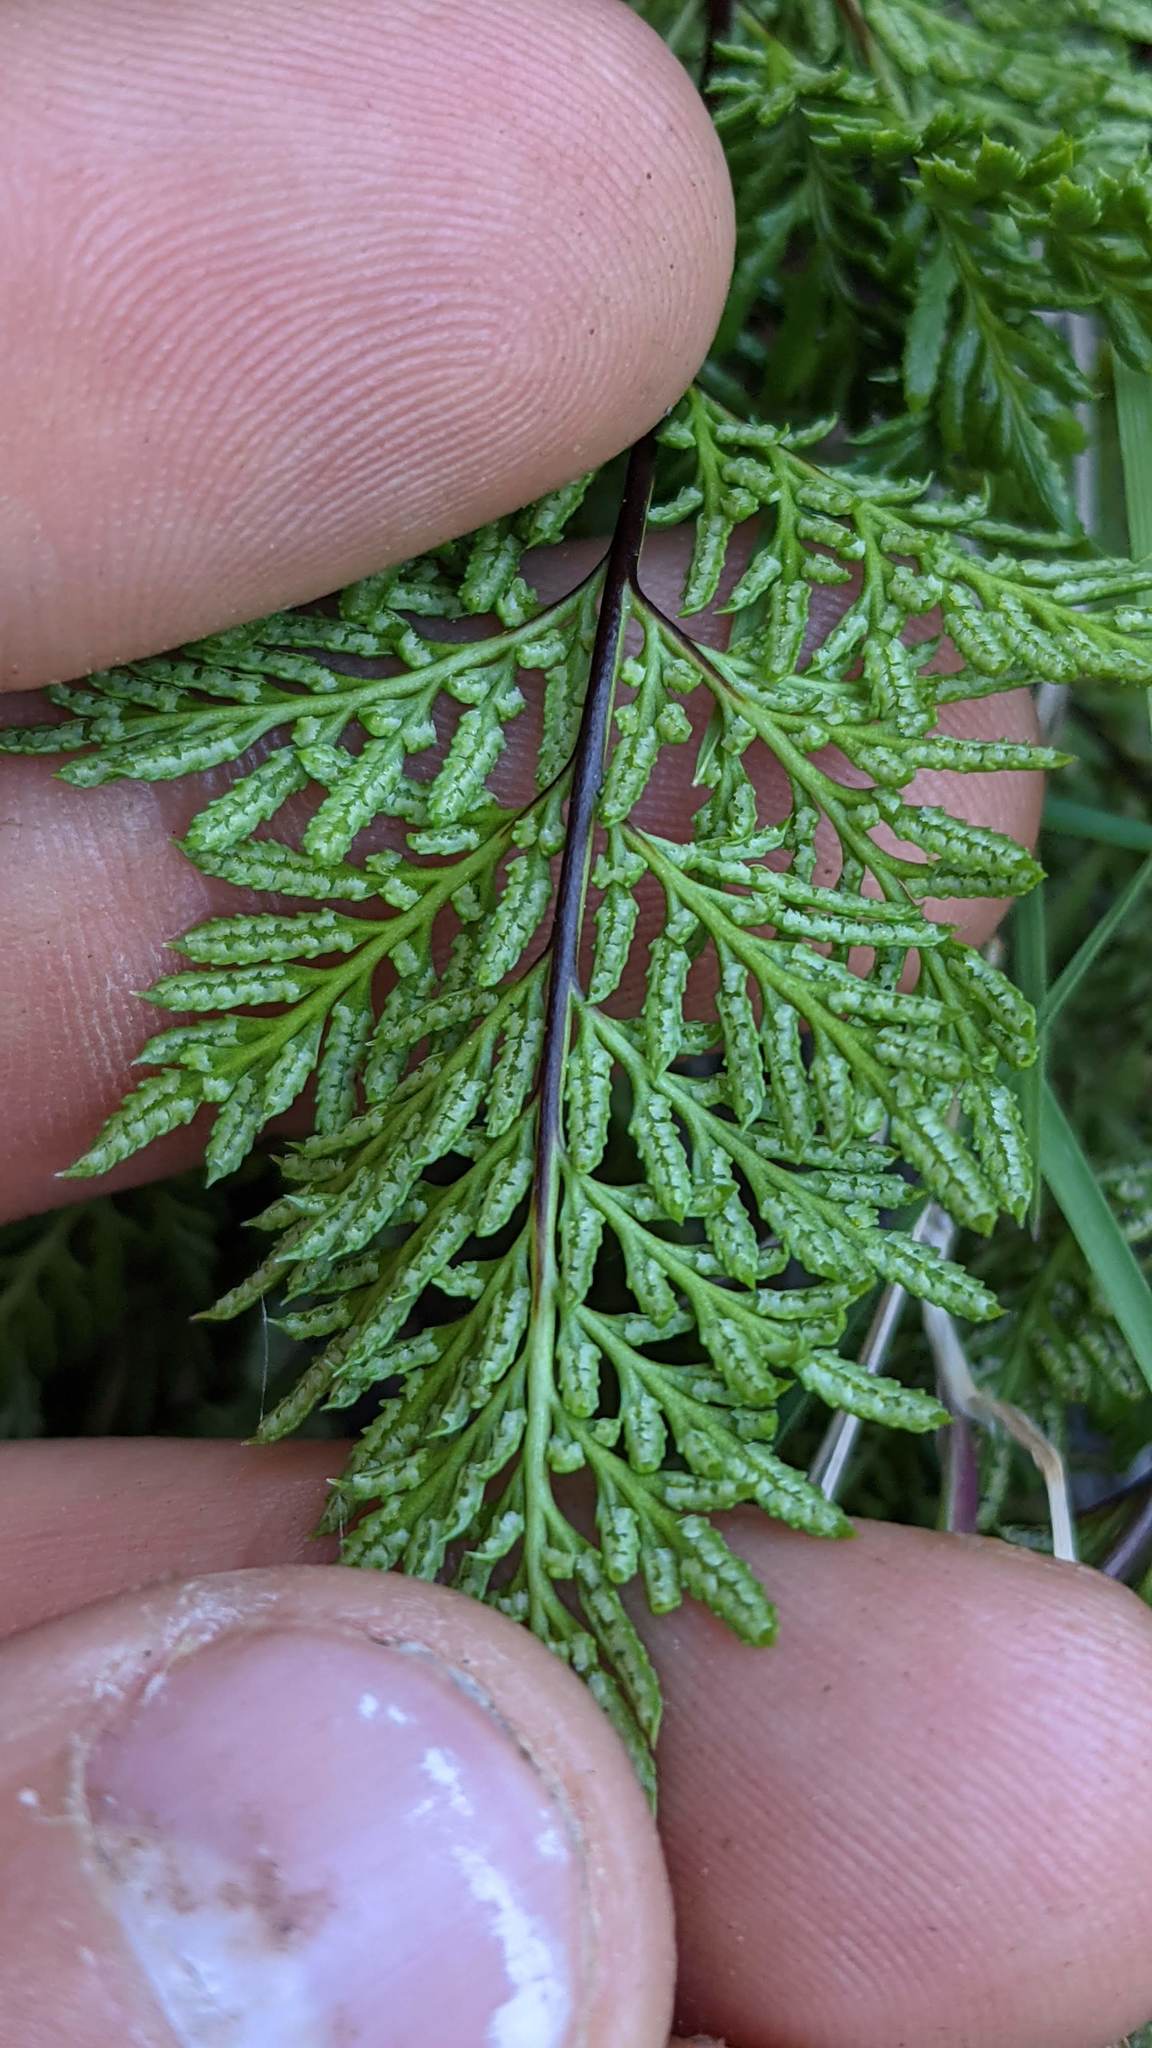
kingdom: Plantae
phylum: Tracheophyta
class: Polypodiopsida
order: Polypodiales
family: Pteridaceae
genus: Aspidotis
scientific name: Aspidotis densa
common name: Indian's dream
